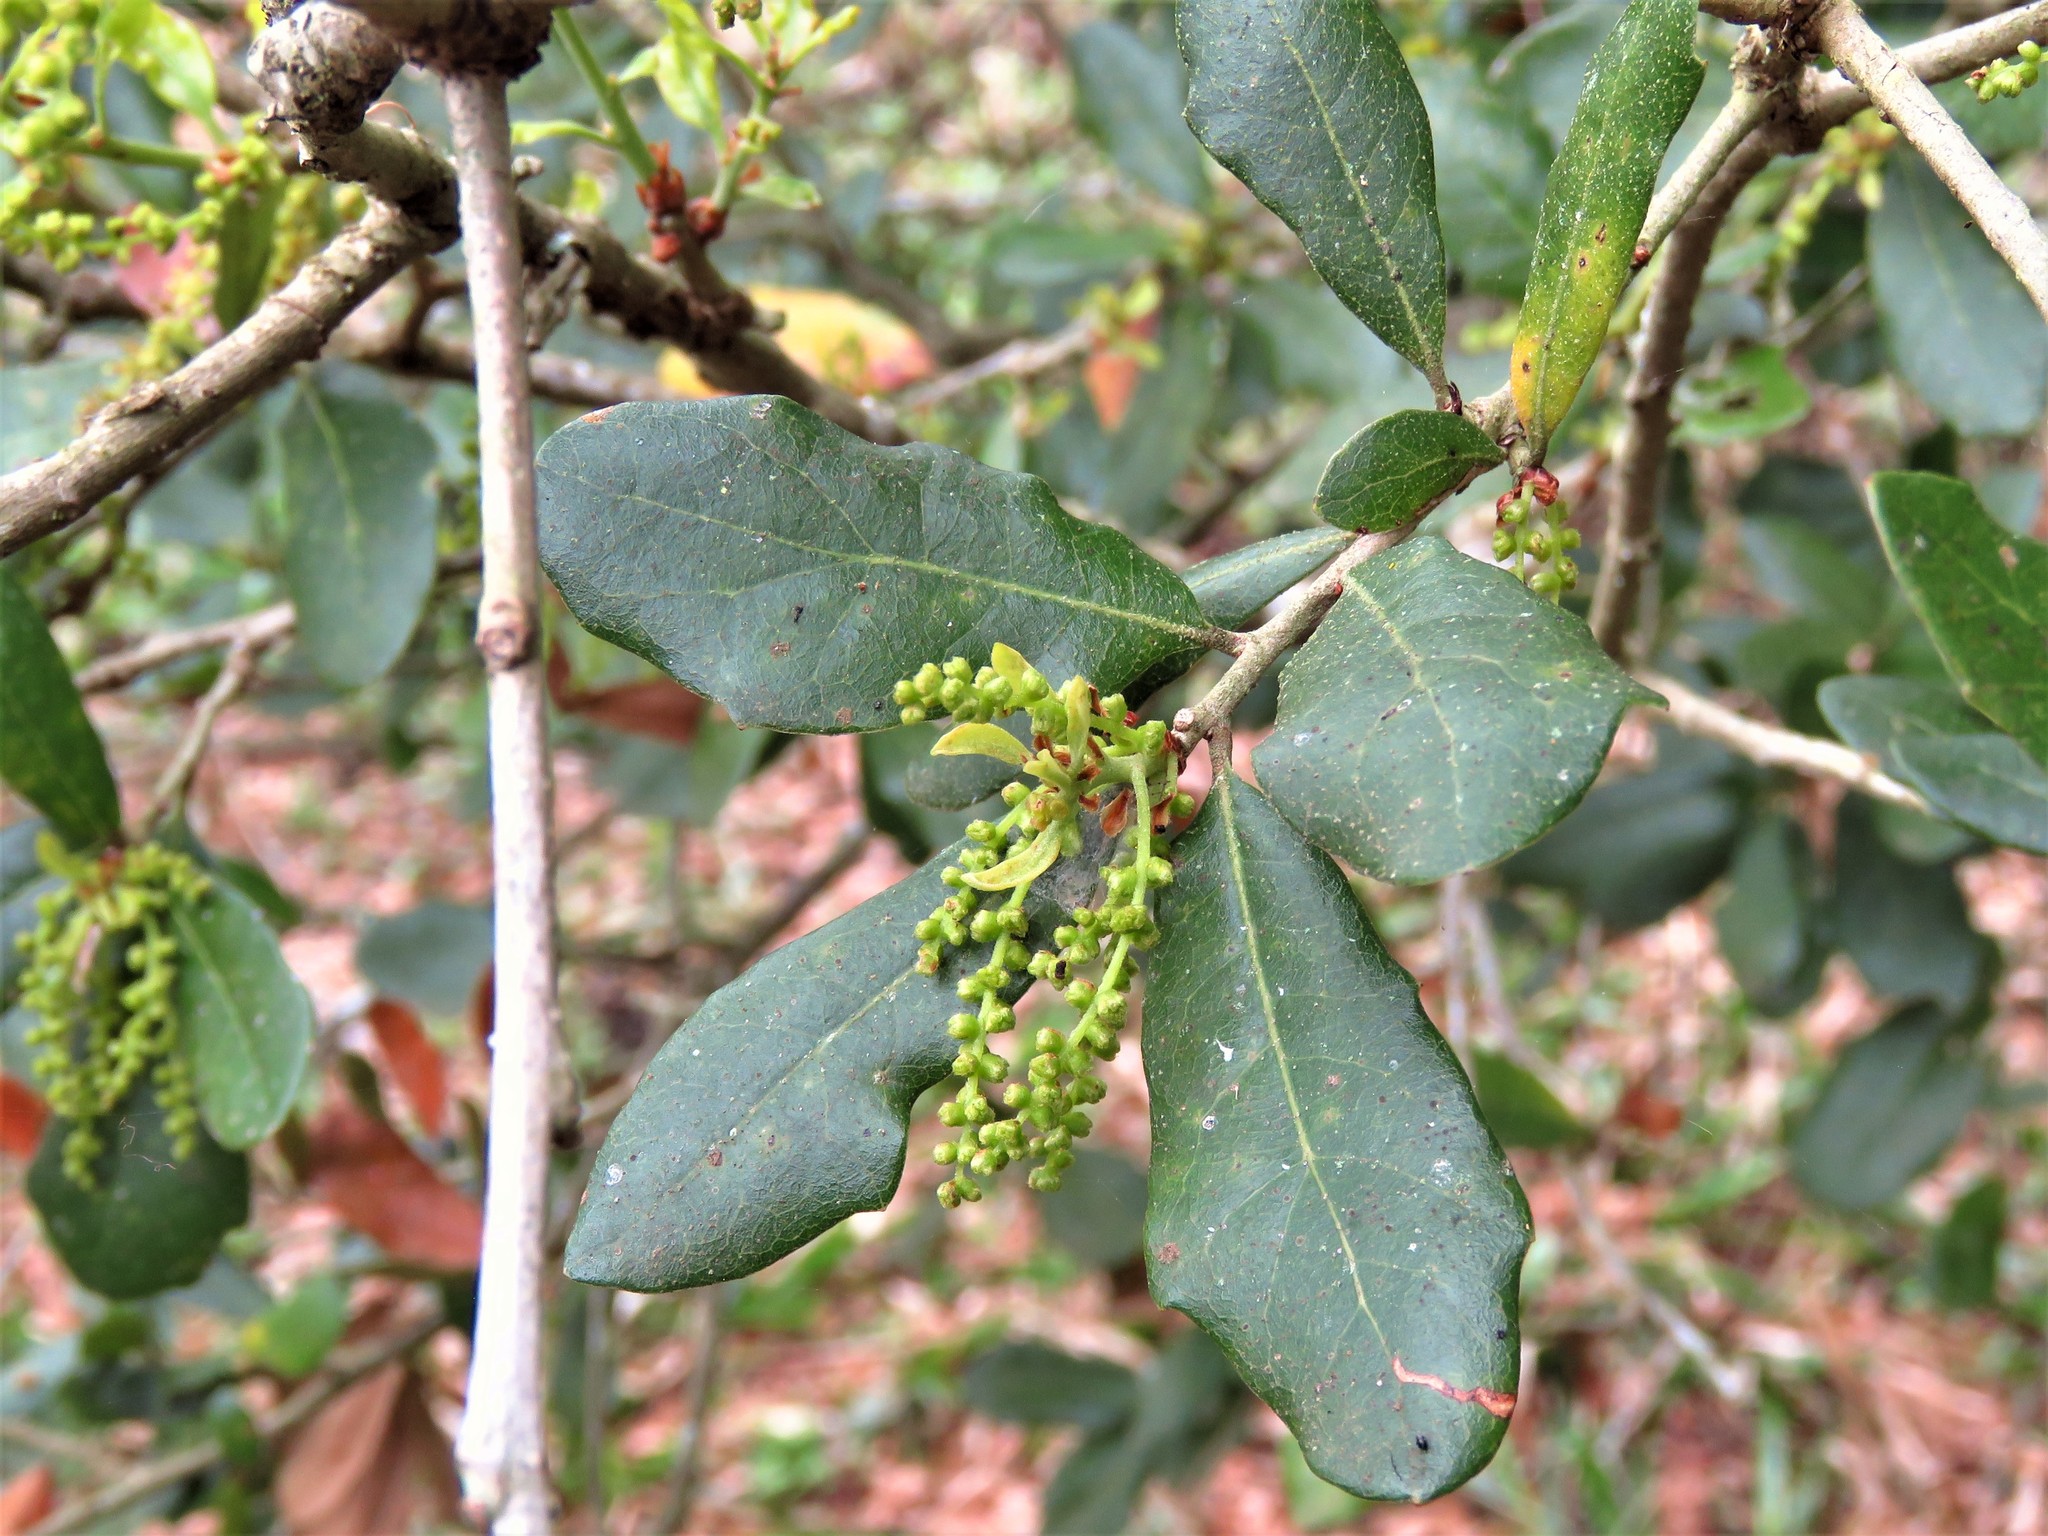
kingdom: Plantae
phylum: Tracheophyta
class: Magnoliopsida
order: Fagales
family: Fagaceae
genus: Quercus
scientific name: Quercus virginiana
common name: Southern live oak
